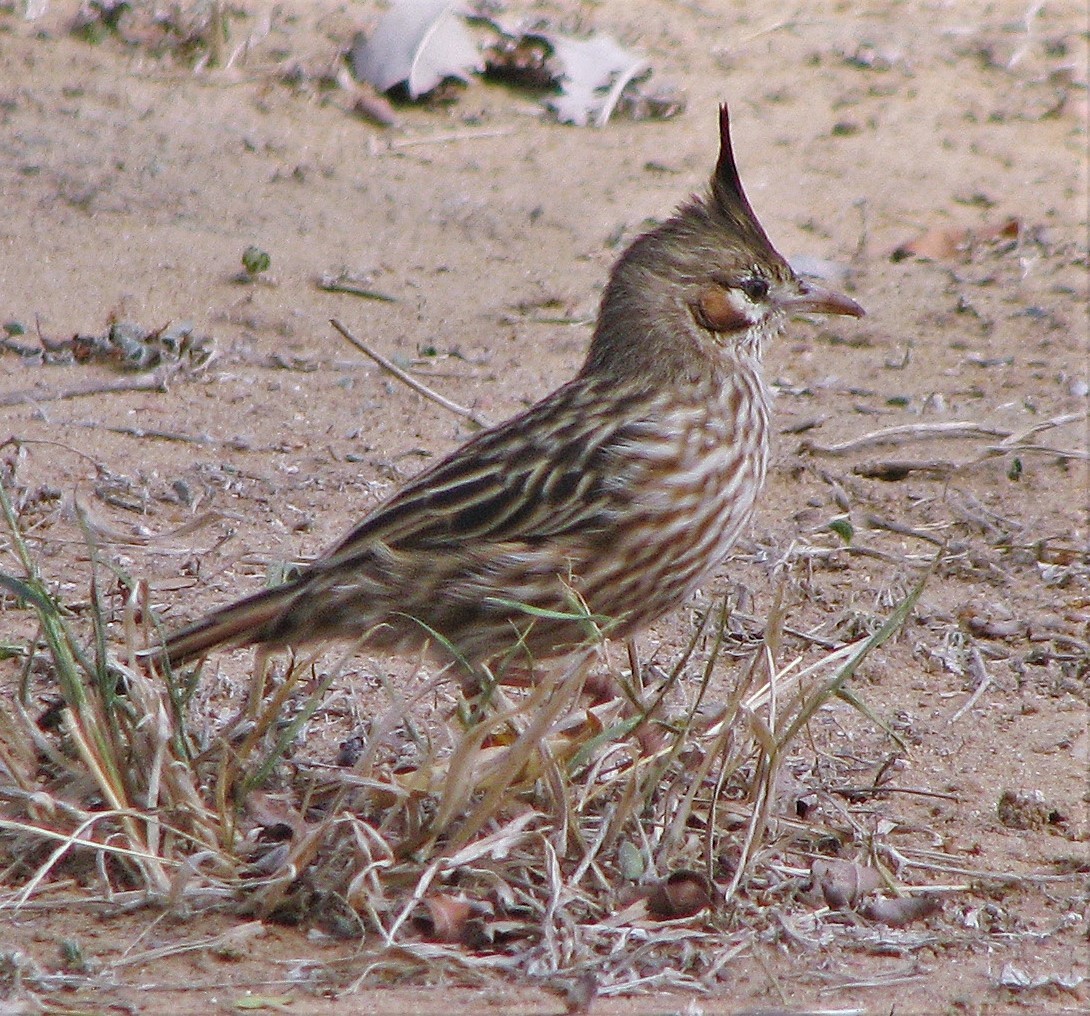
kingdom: Animalia
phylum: Chordata
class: Aves
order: Passeriformes
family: Furnariidae
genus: Coryphistera
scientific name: Coryphistera alaudina
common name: Lark-like brushrunner
